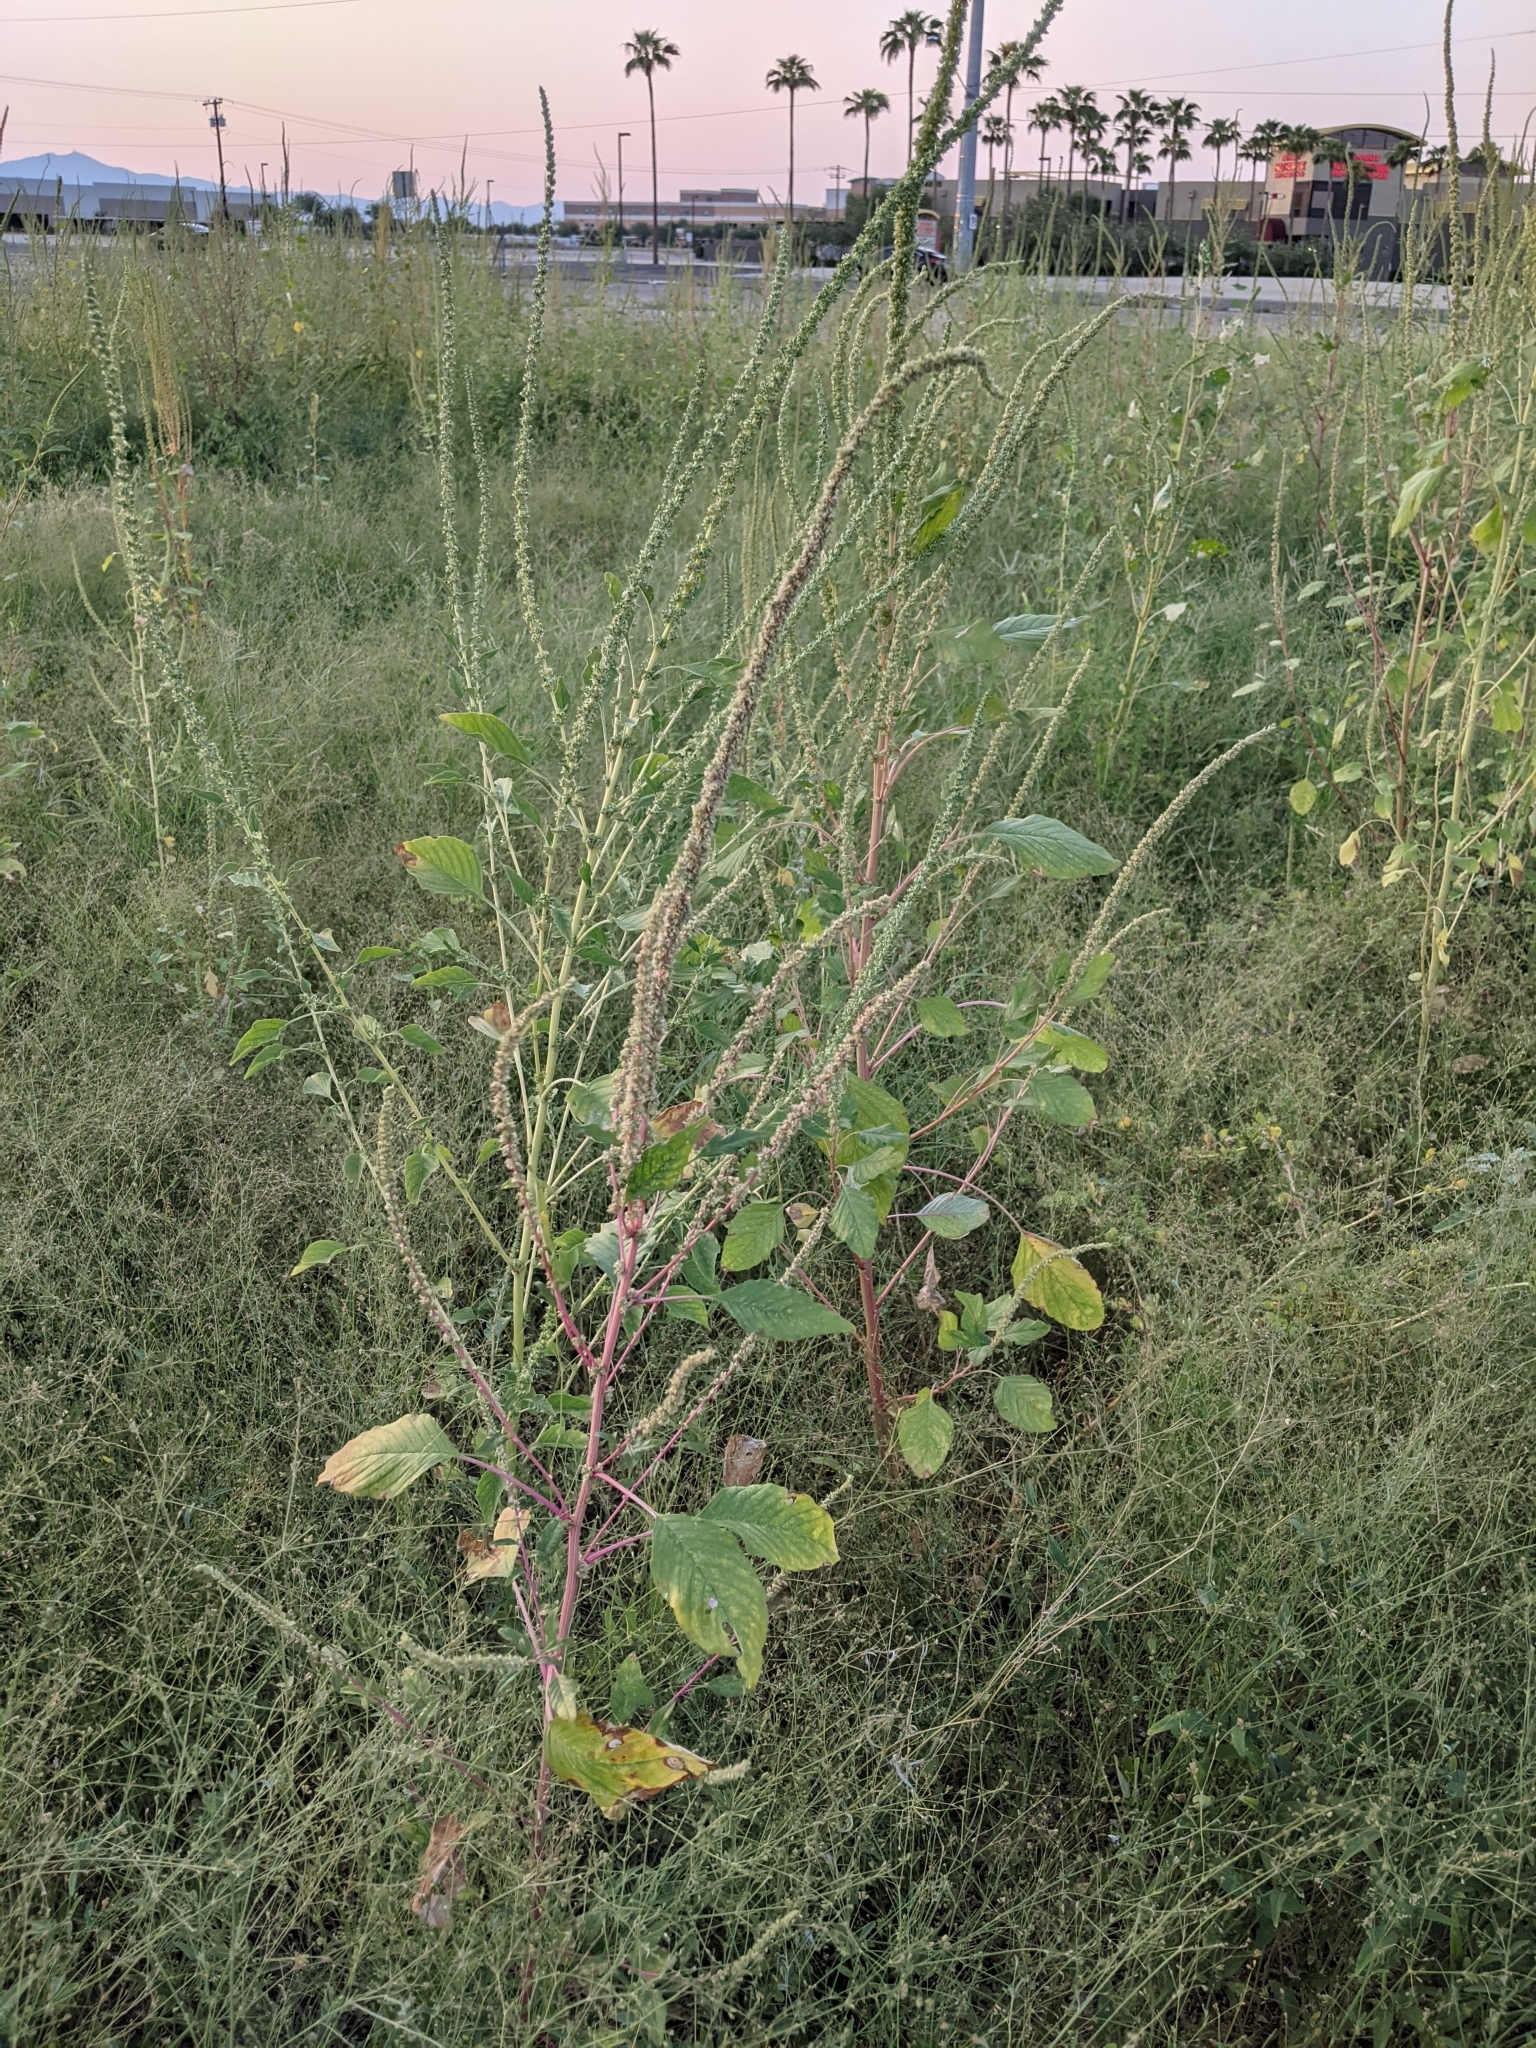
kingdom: Plantae
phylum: Tracheophyta
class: Magnoliopsida
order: Caryophyllales
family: Amaranthaceae
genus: Amaranthus
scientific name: Amaranthus palmeri
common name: Dioecious amaranth
